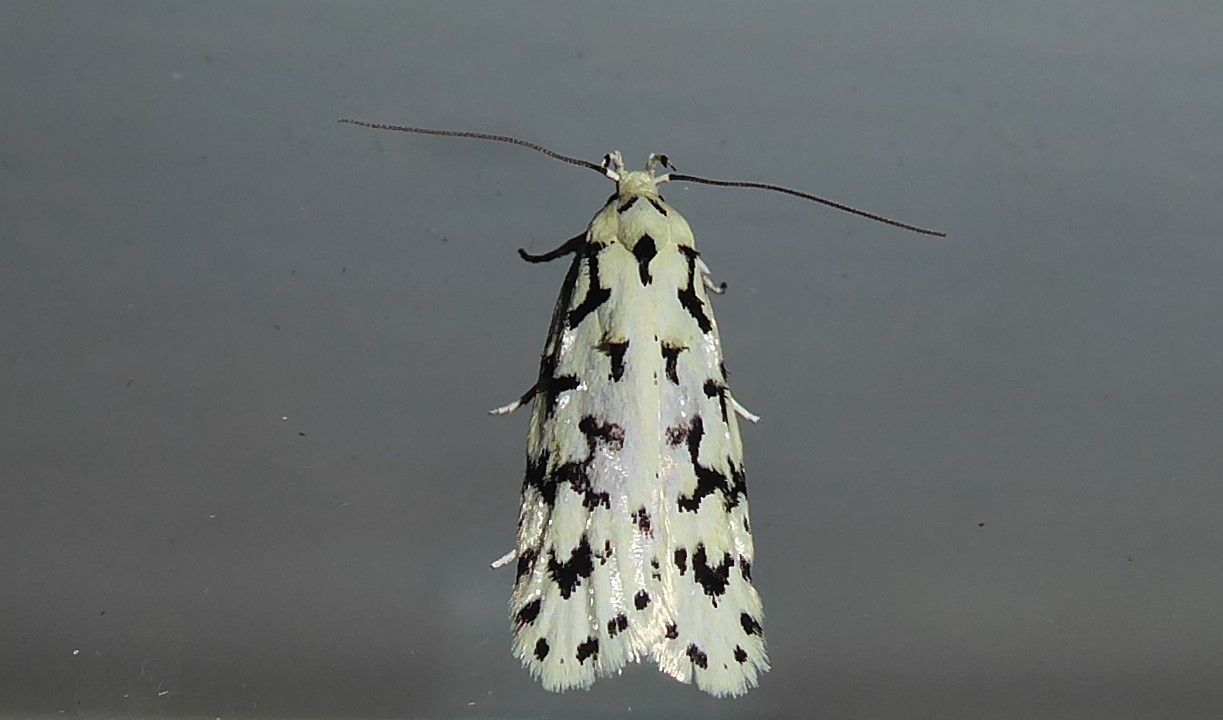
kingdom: Animalia
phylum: Arthropoda
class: Insecta
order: Lepidoptera
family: Oecophoridae
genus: Izatha
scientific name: Izatha huttoni
